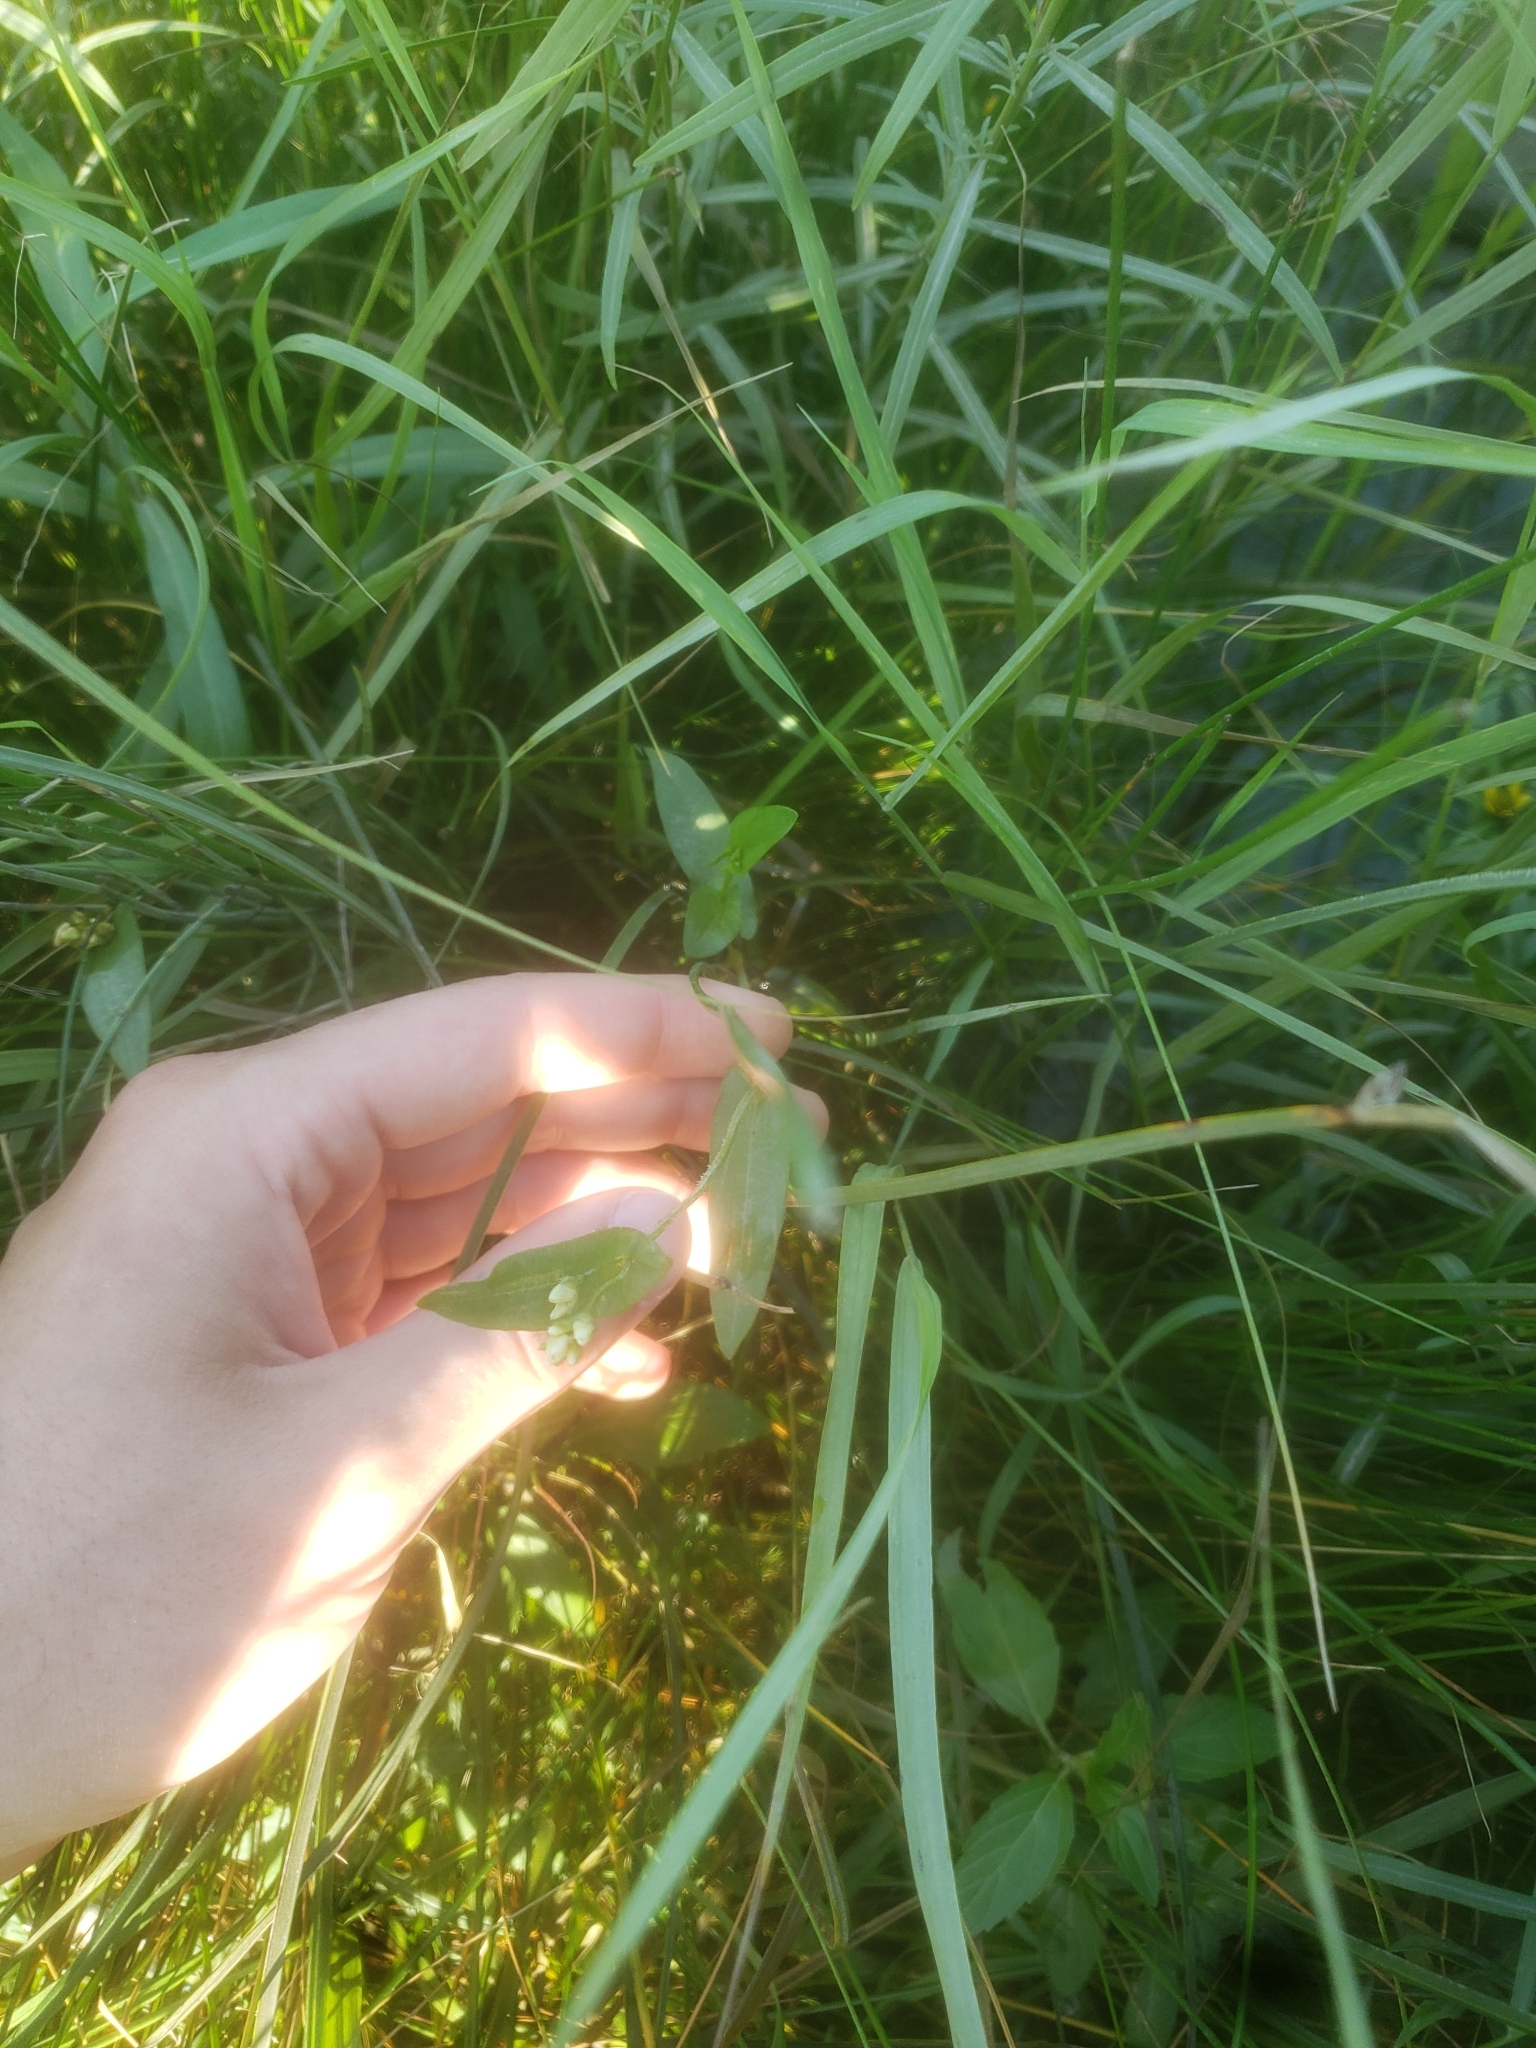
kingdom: Plantae
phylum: Tracheophyta
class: Magnoliopsida
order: Caryophyllales
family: Polygonaceae
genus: Persicaria
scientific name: Persicaria sagittata
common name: American tearthumb
